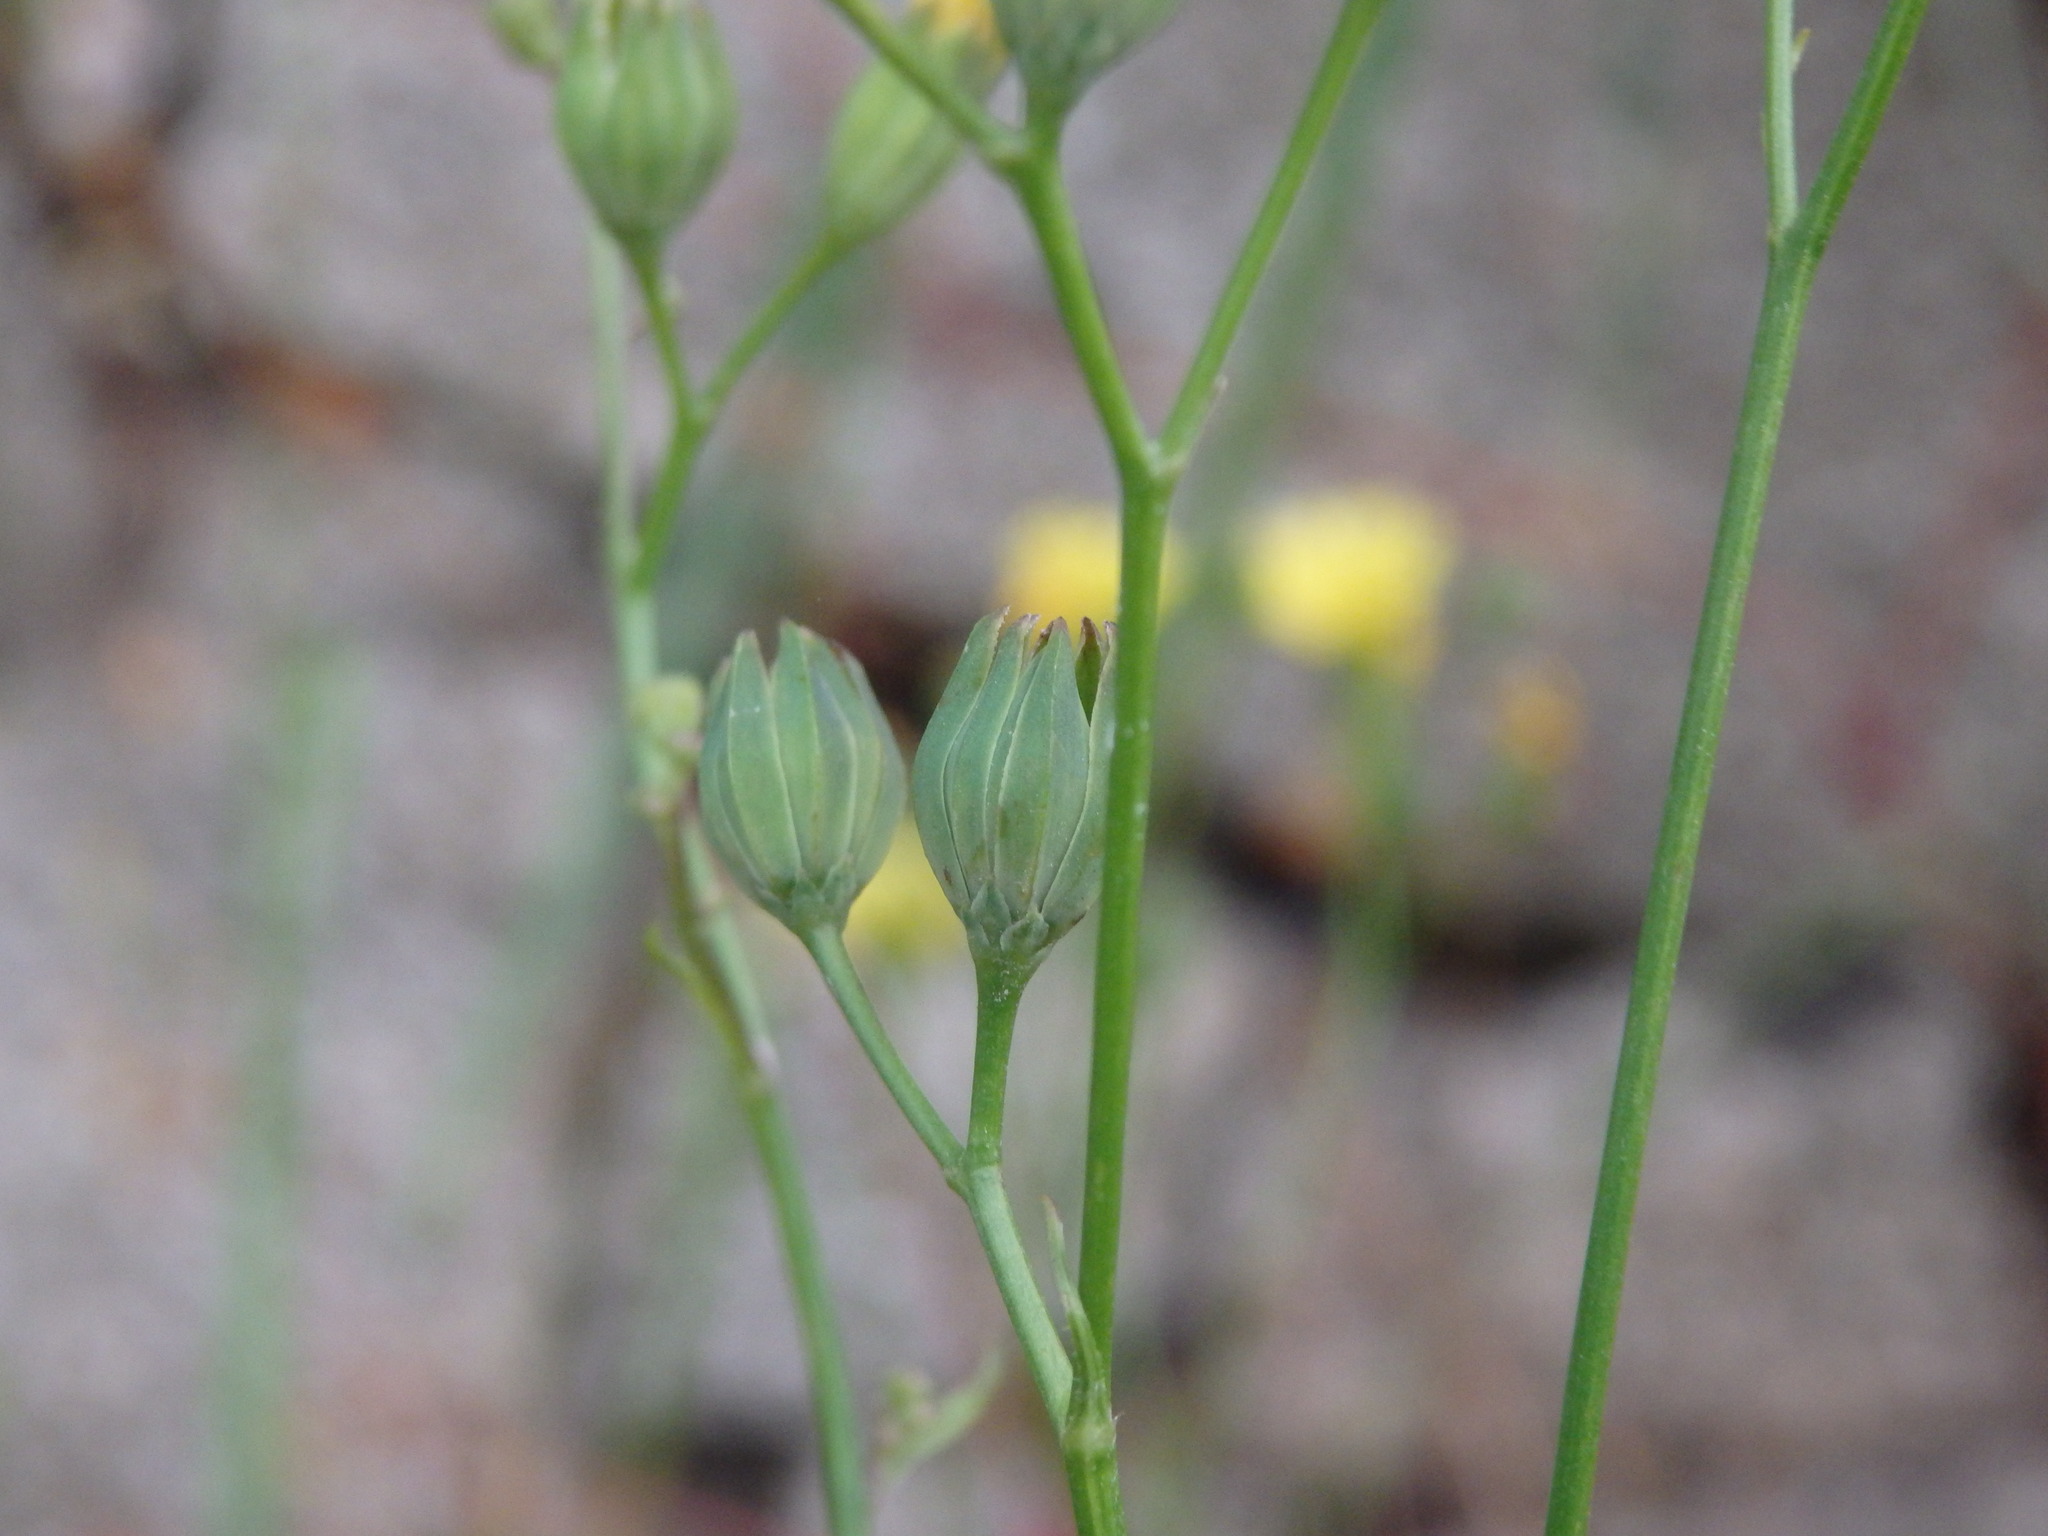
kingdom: Plantae
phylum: Tracheophyta
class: Magnoliopsida
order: Asterales
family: Asteraceae
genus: Lapsana
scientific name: Lapsana communis
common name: Nipplewort
